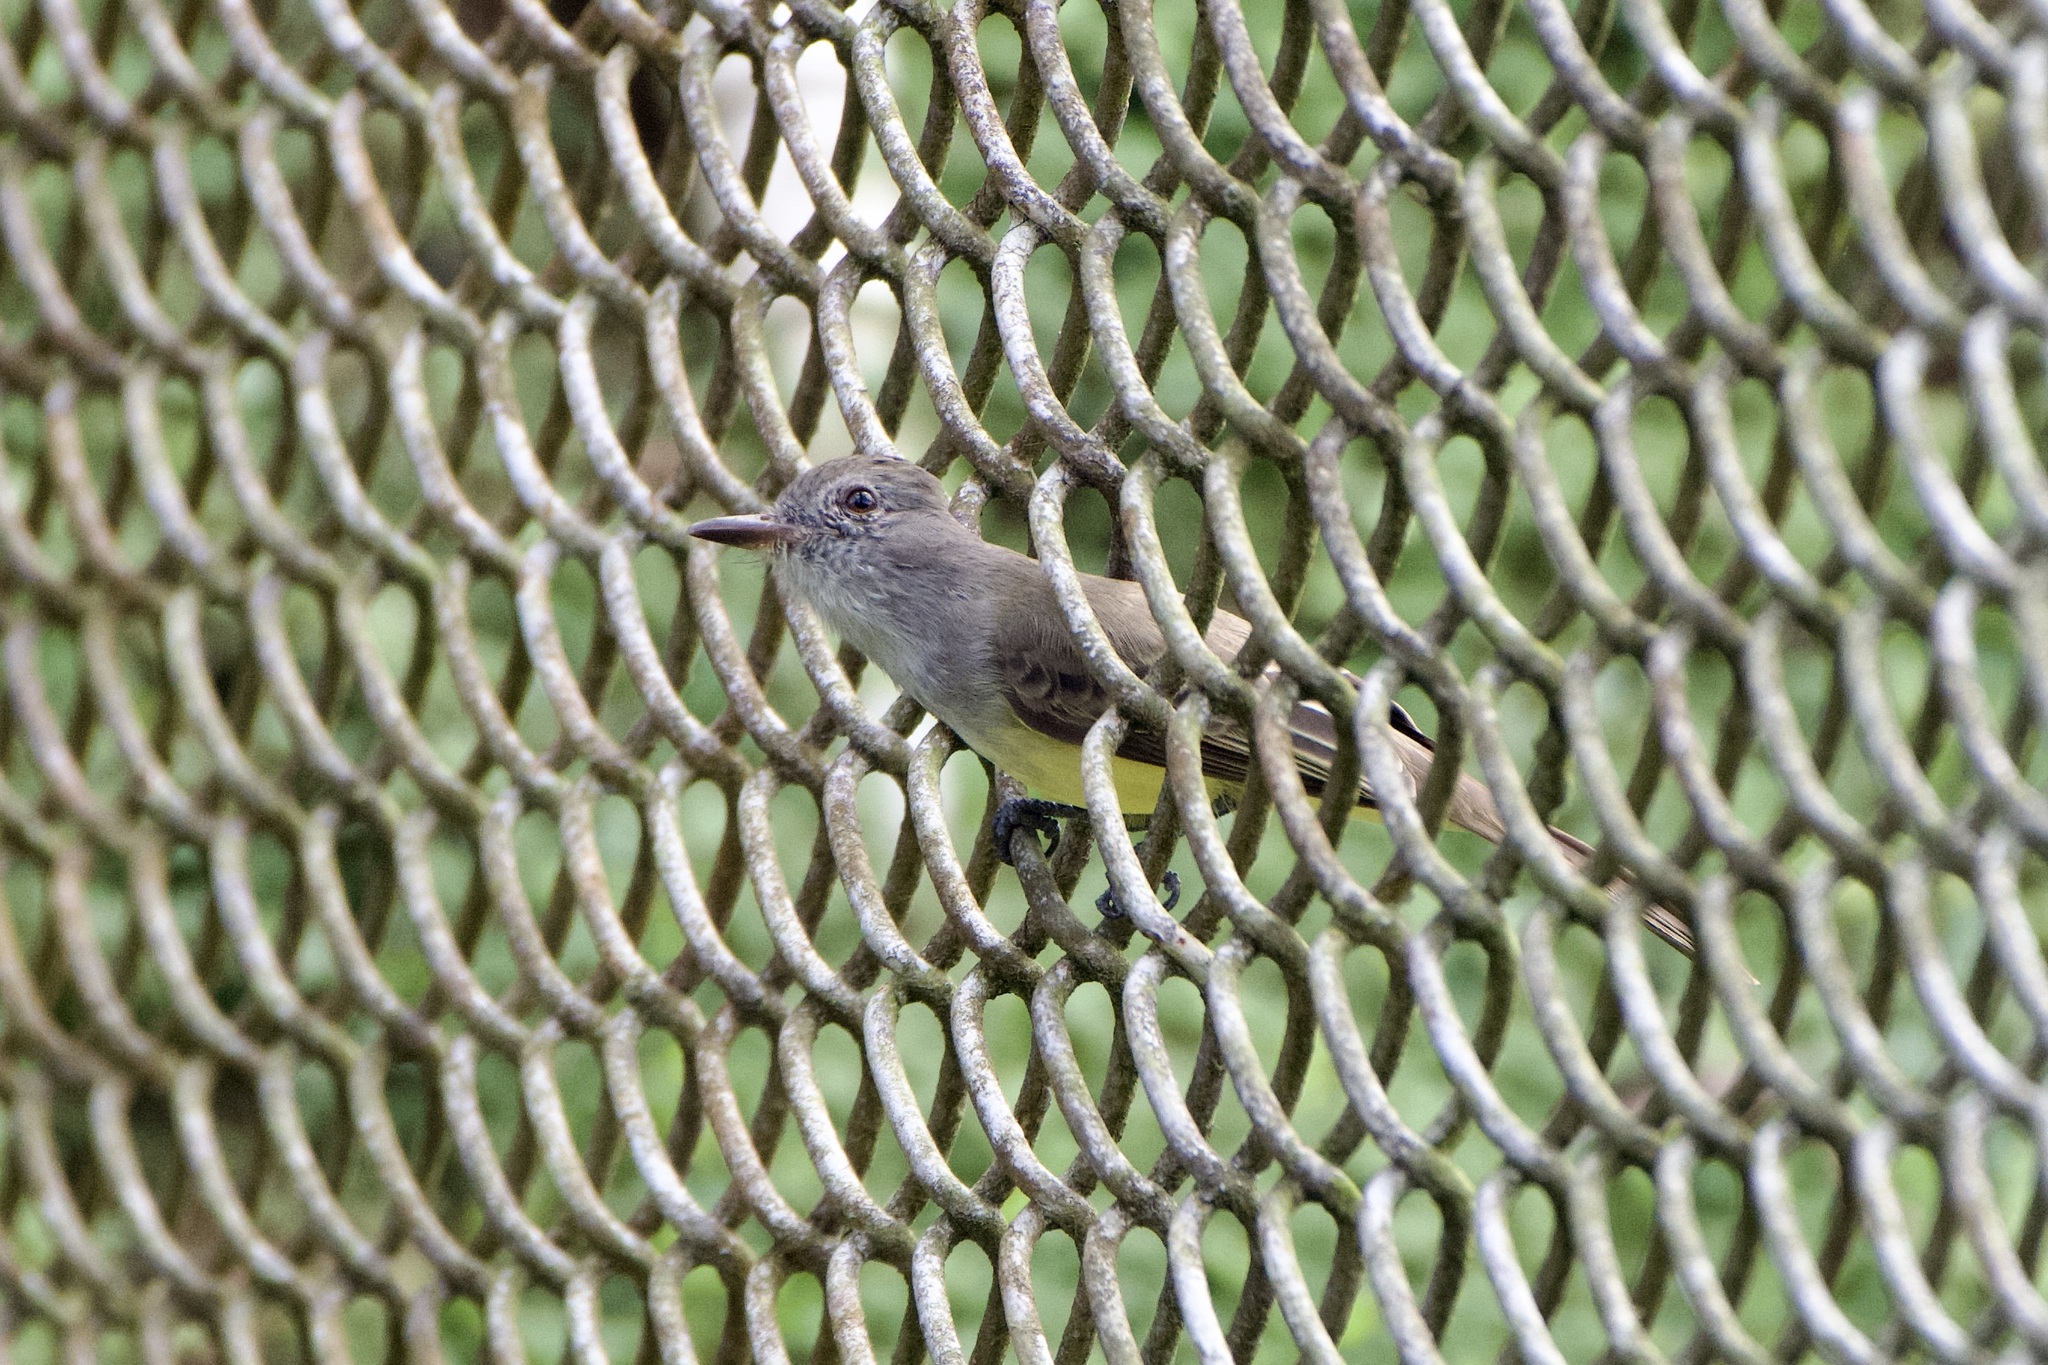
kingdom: Animalia
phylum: Chordata
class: Aves
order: Passeriformes
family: Tyrannidae
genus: Myiarchus
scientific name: Myiarchus panamensis
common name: Panama flycatcher
